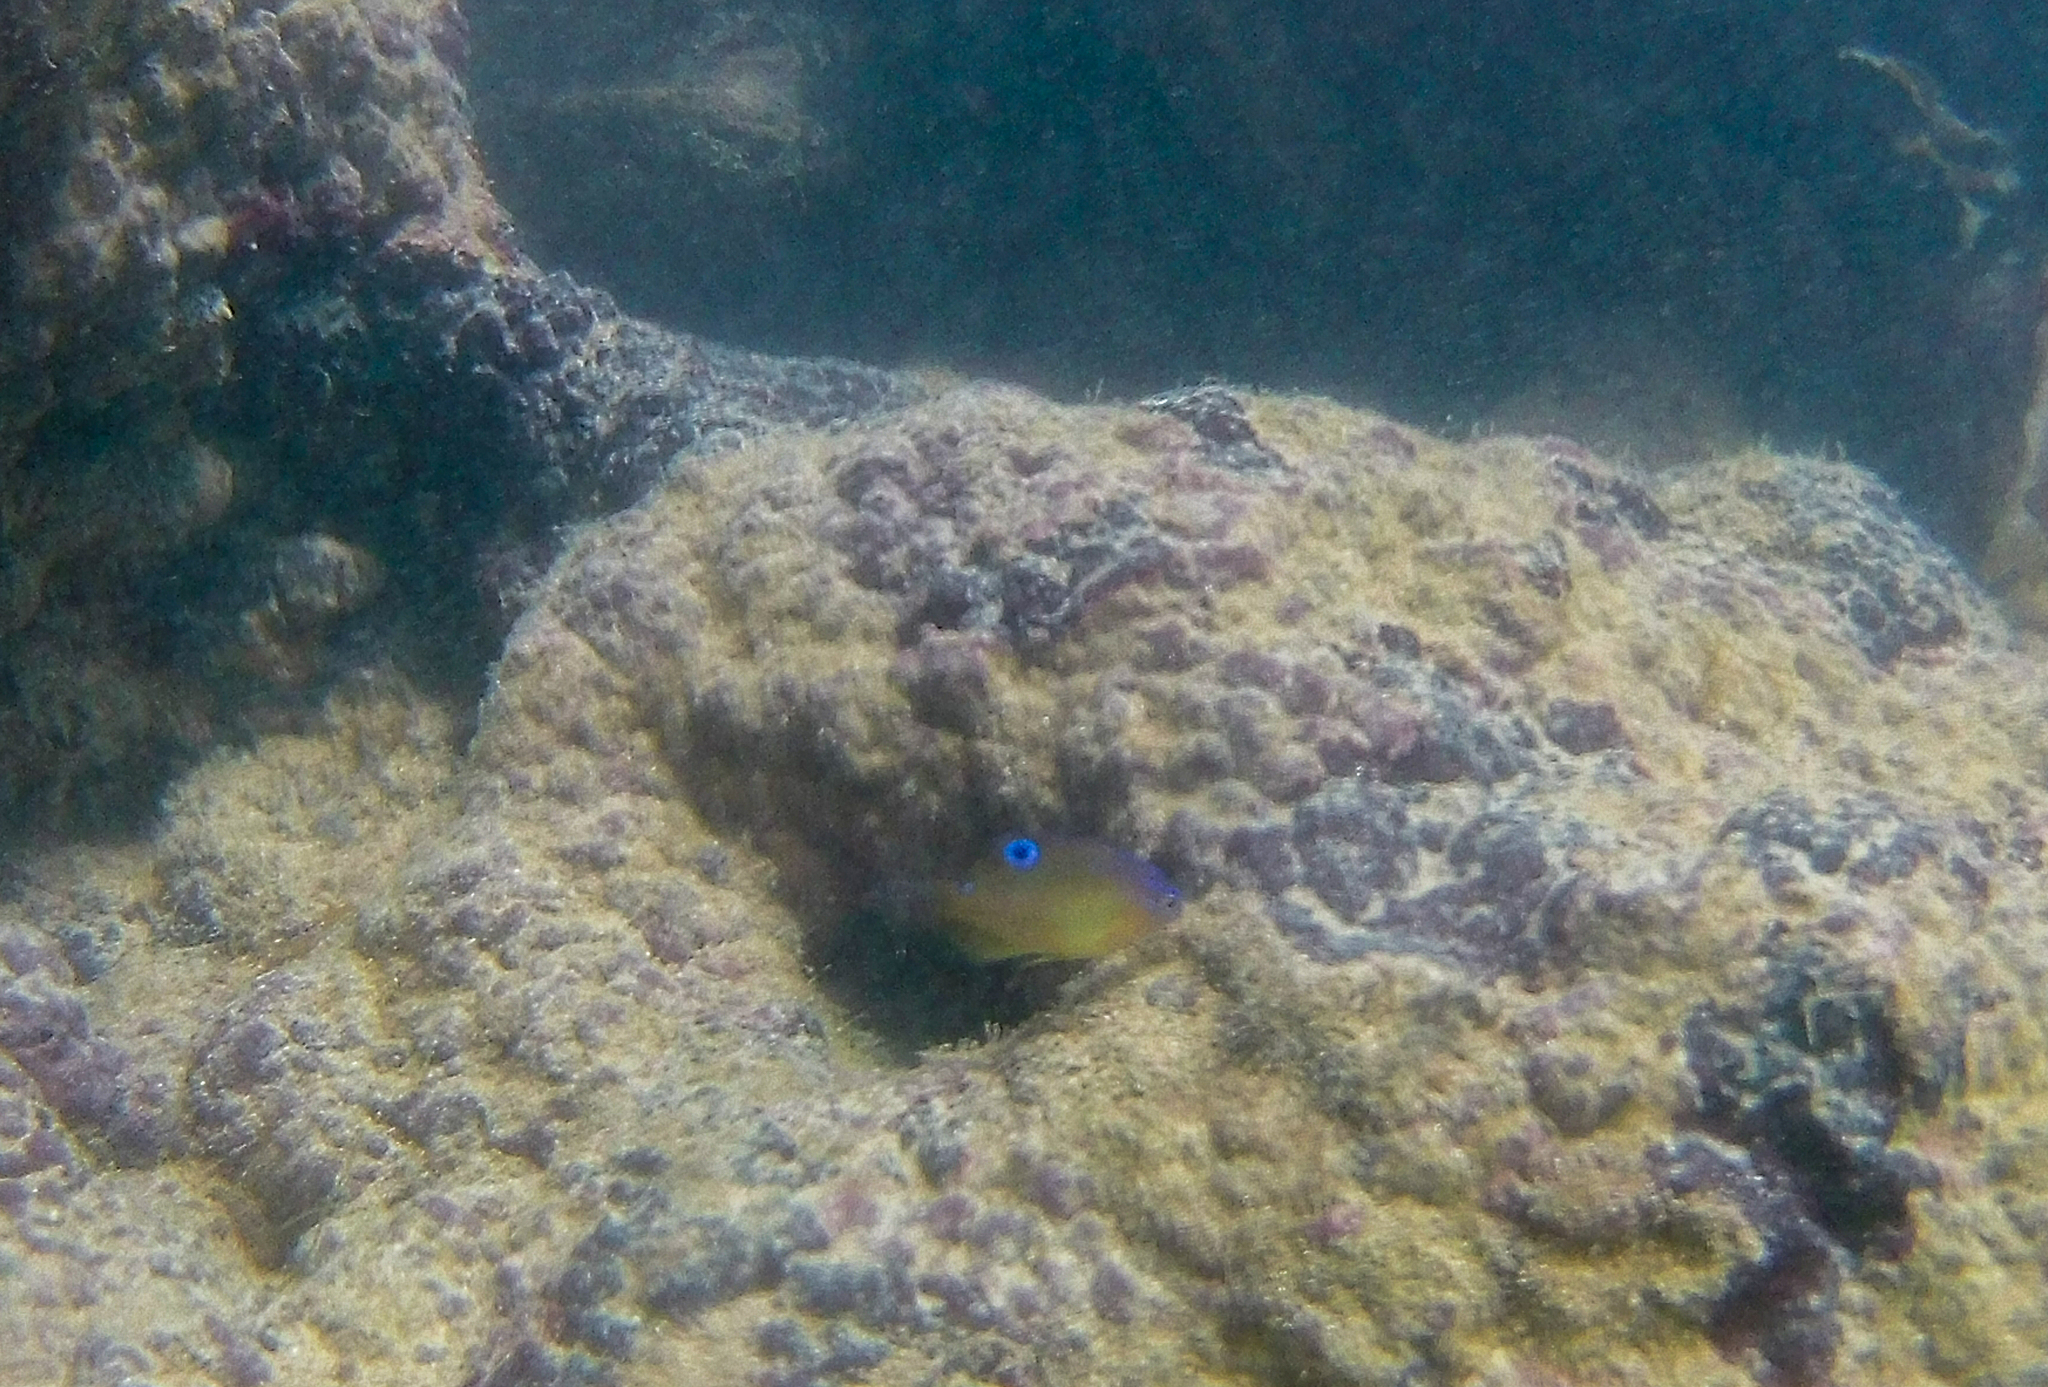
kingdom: Animalia
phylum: Chordata
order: Perciformes
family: Pomacentridae
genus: Stegastes
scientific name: Stegastes variabilis
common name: Cocoa damselfish
